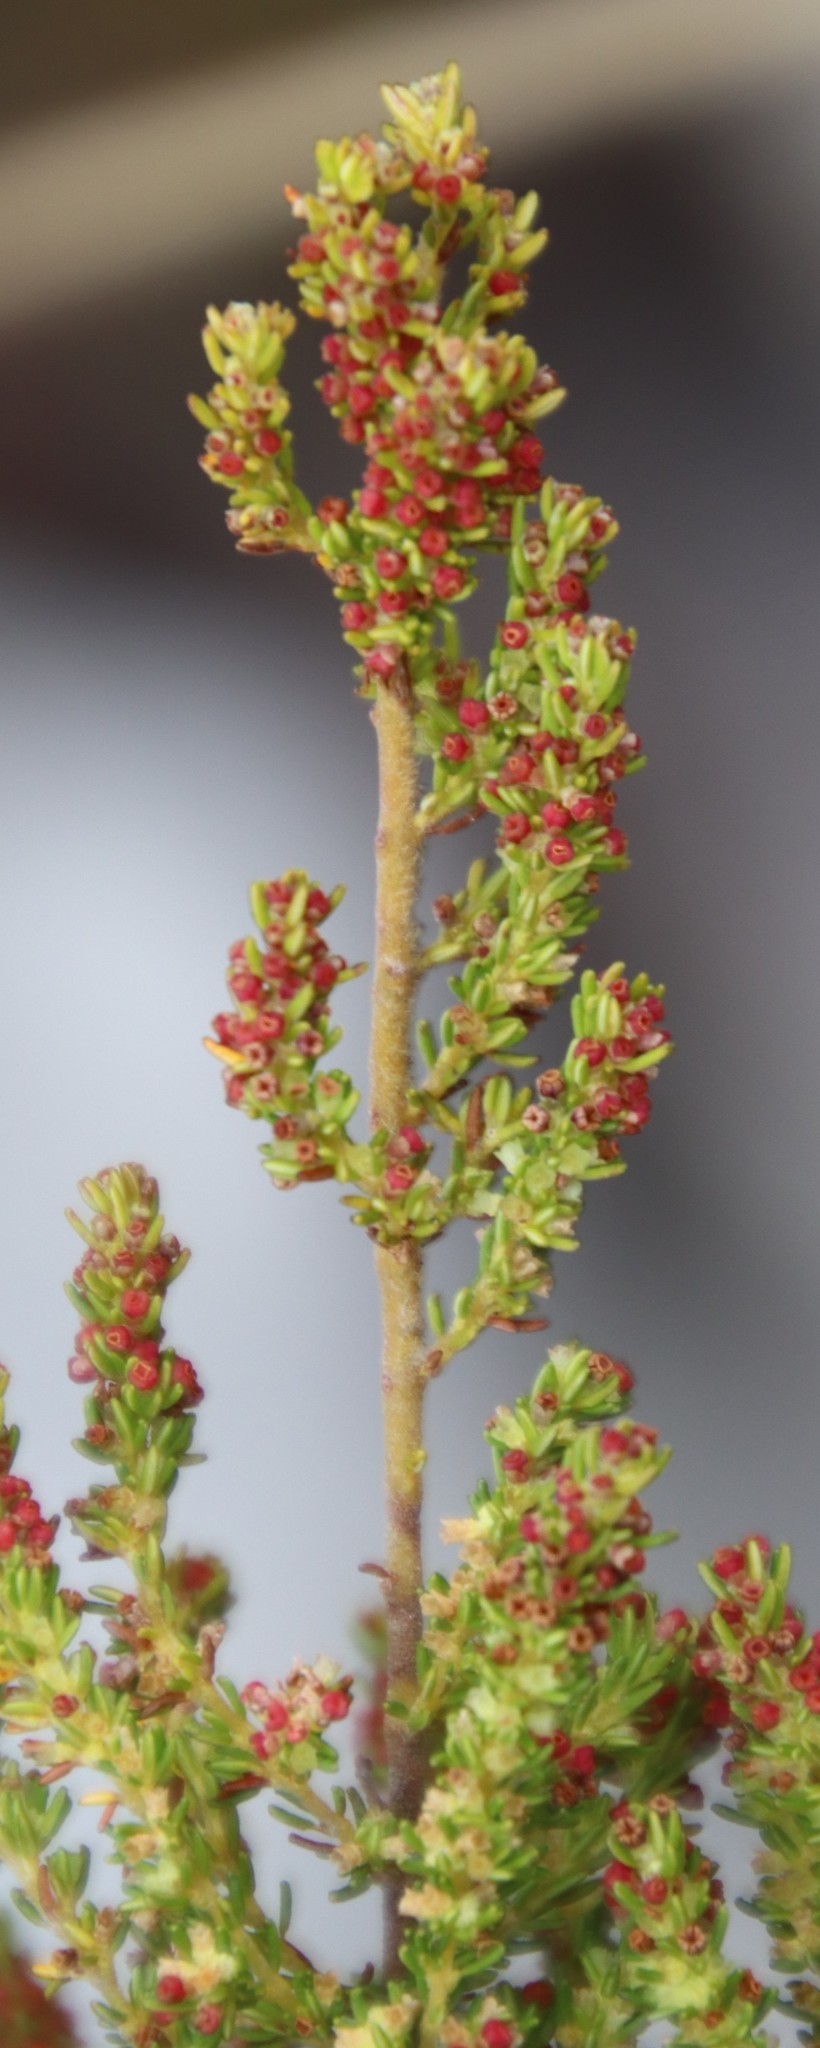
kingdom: Plantae
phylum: Tracheophyta
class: Magnoliopsida
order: Ericales
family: Ericaceae
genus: Erica
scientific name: Erica muscosa
